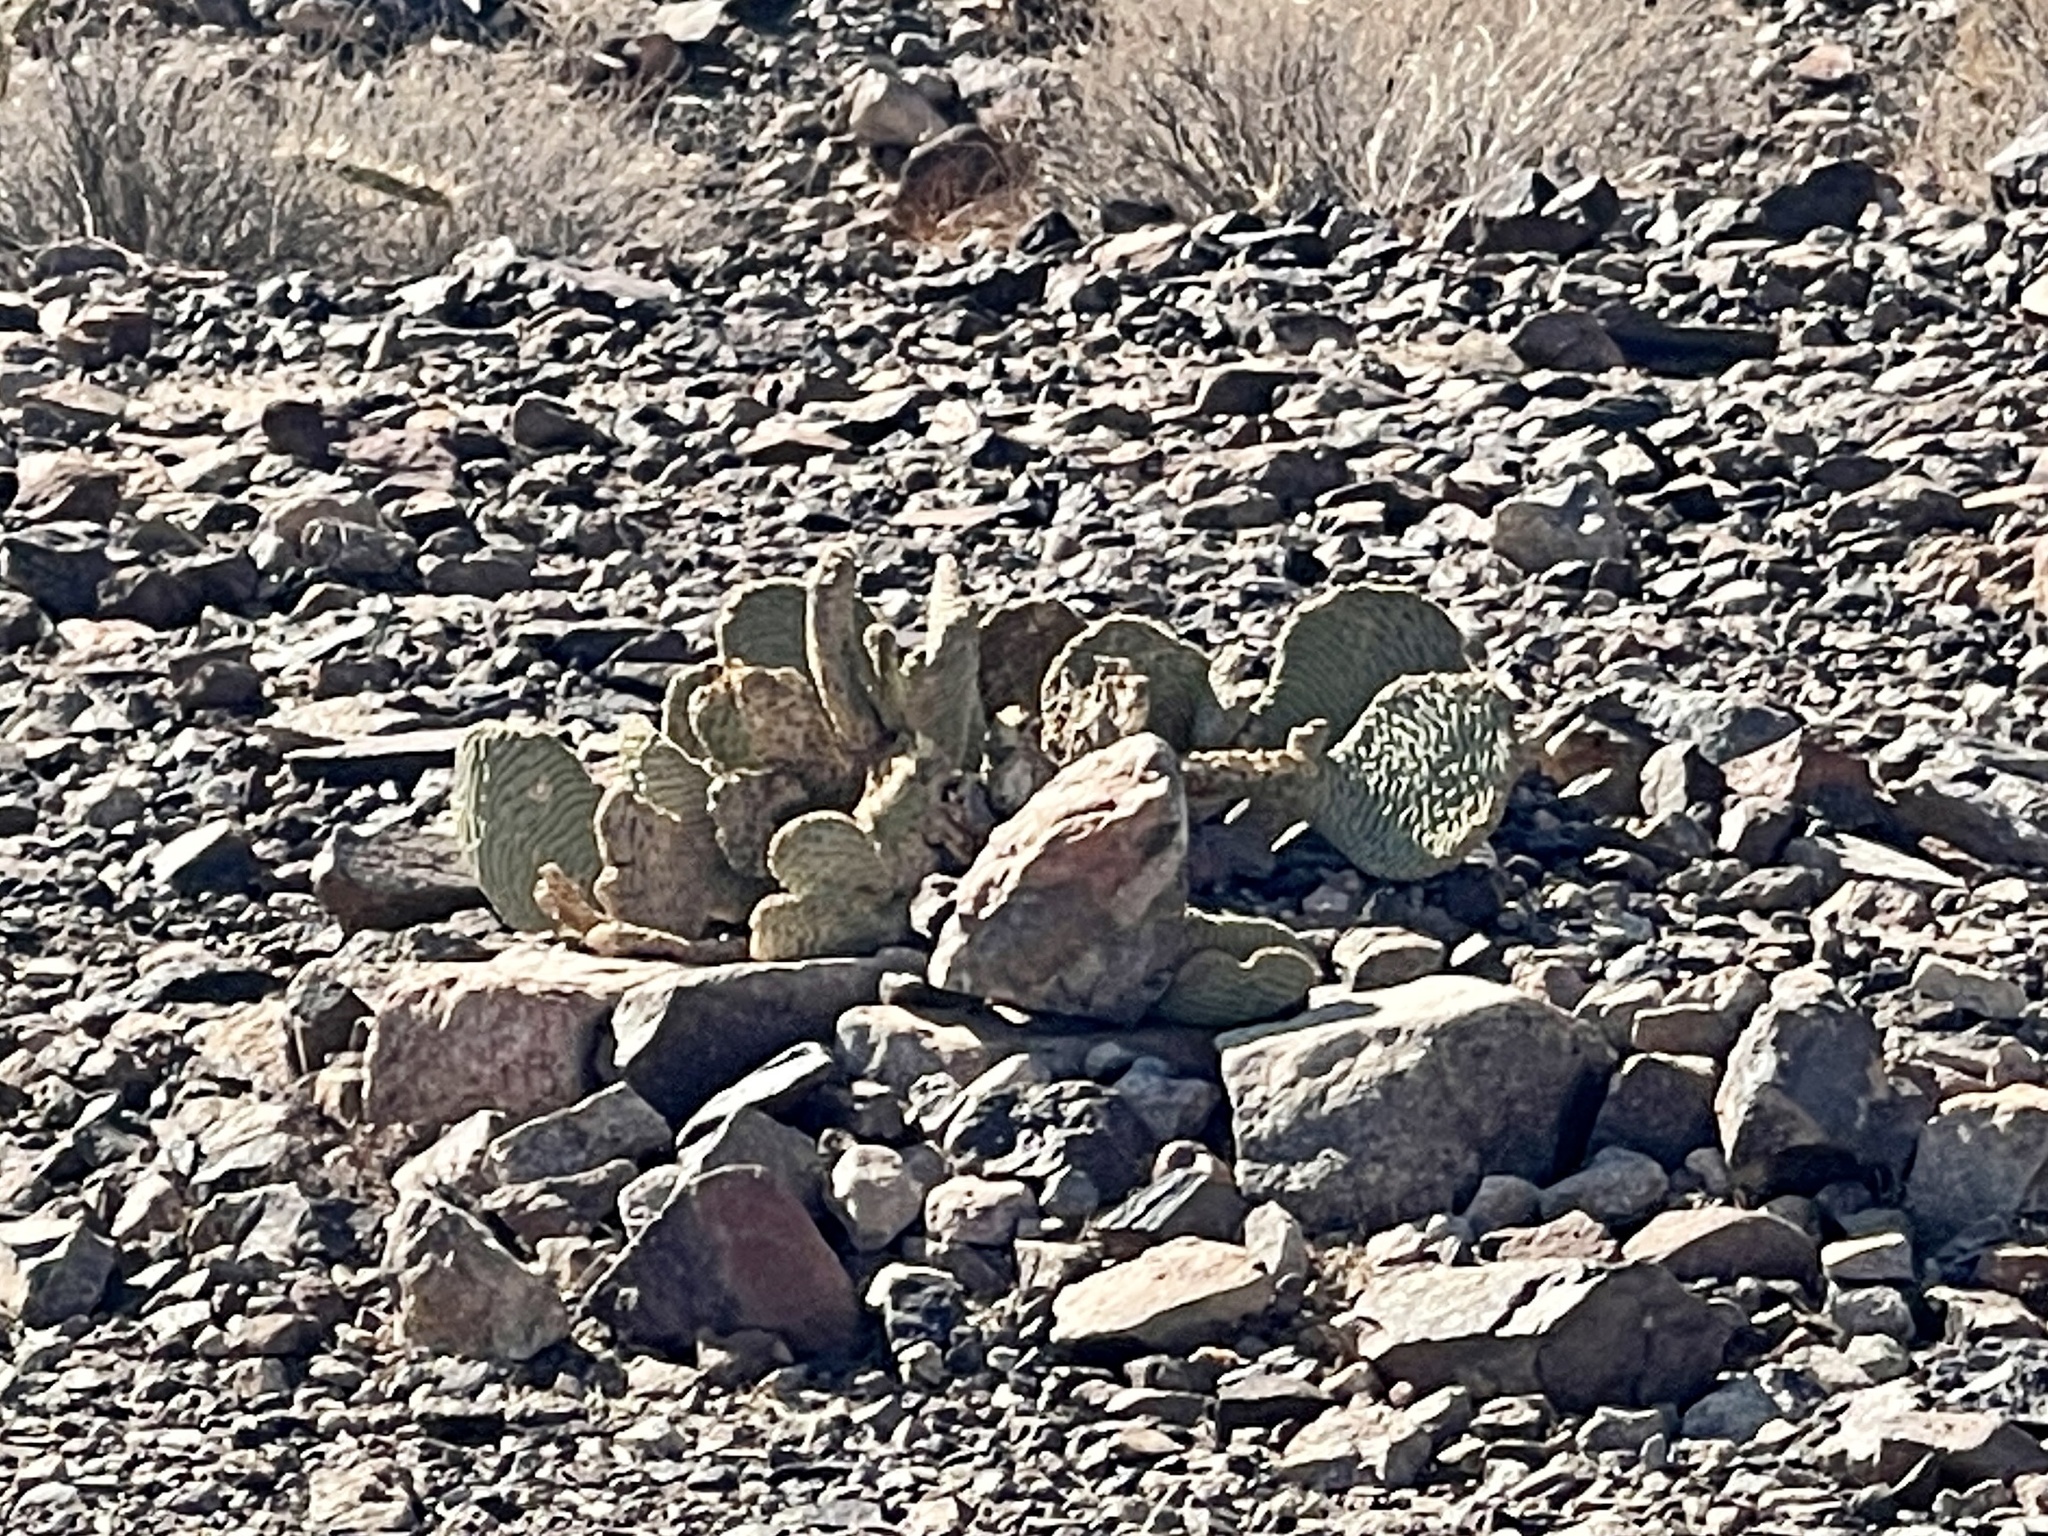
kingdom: Plantae
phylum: Tracheophyta
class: Magnoliopsida
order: Caryophyllales
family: Cactaceae
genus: Opuntia
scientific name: Opuntia basilaris
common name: Beavertail prickly-pear
